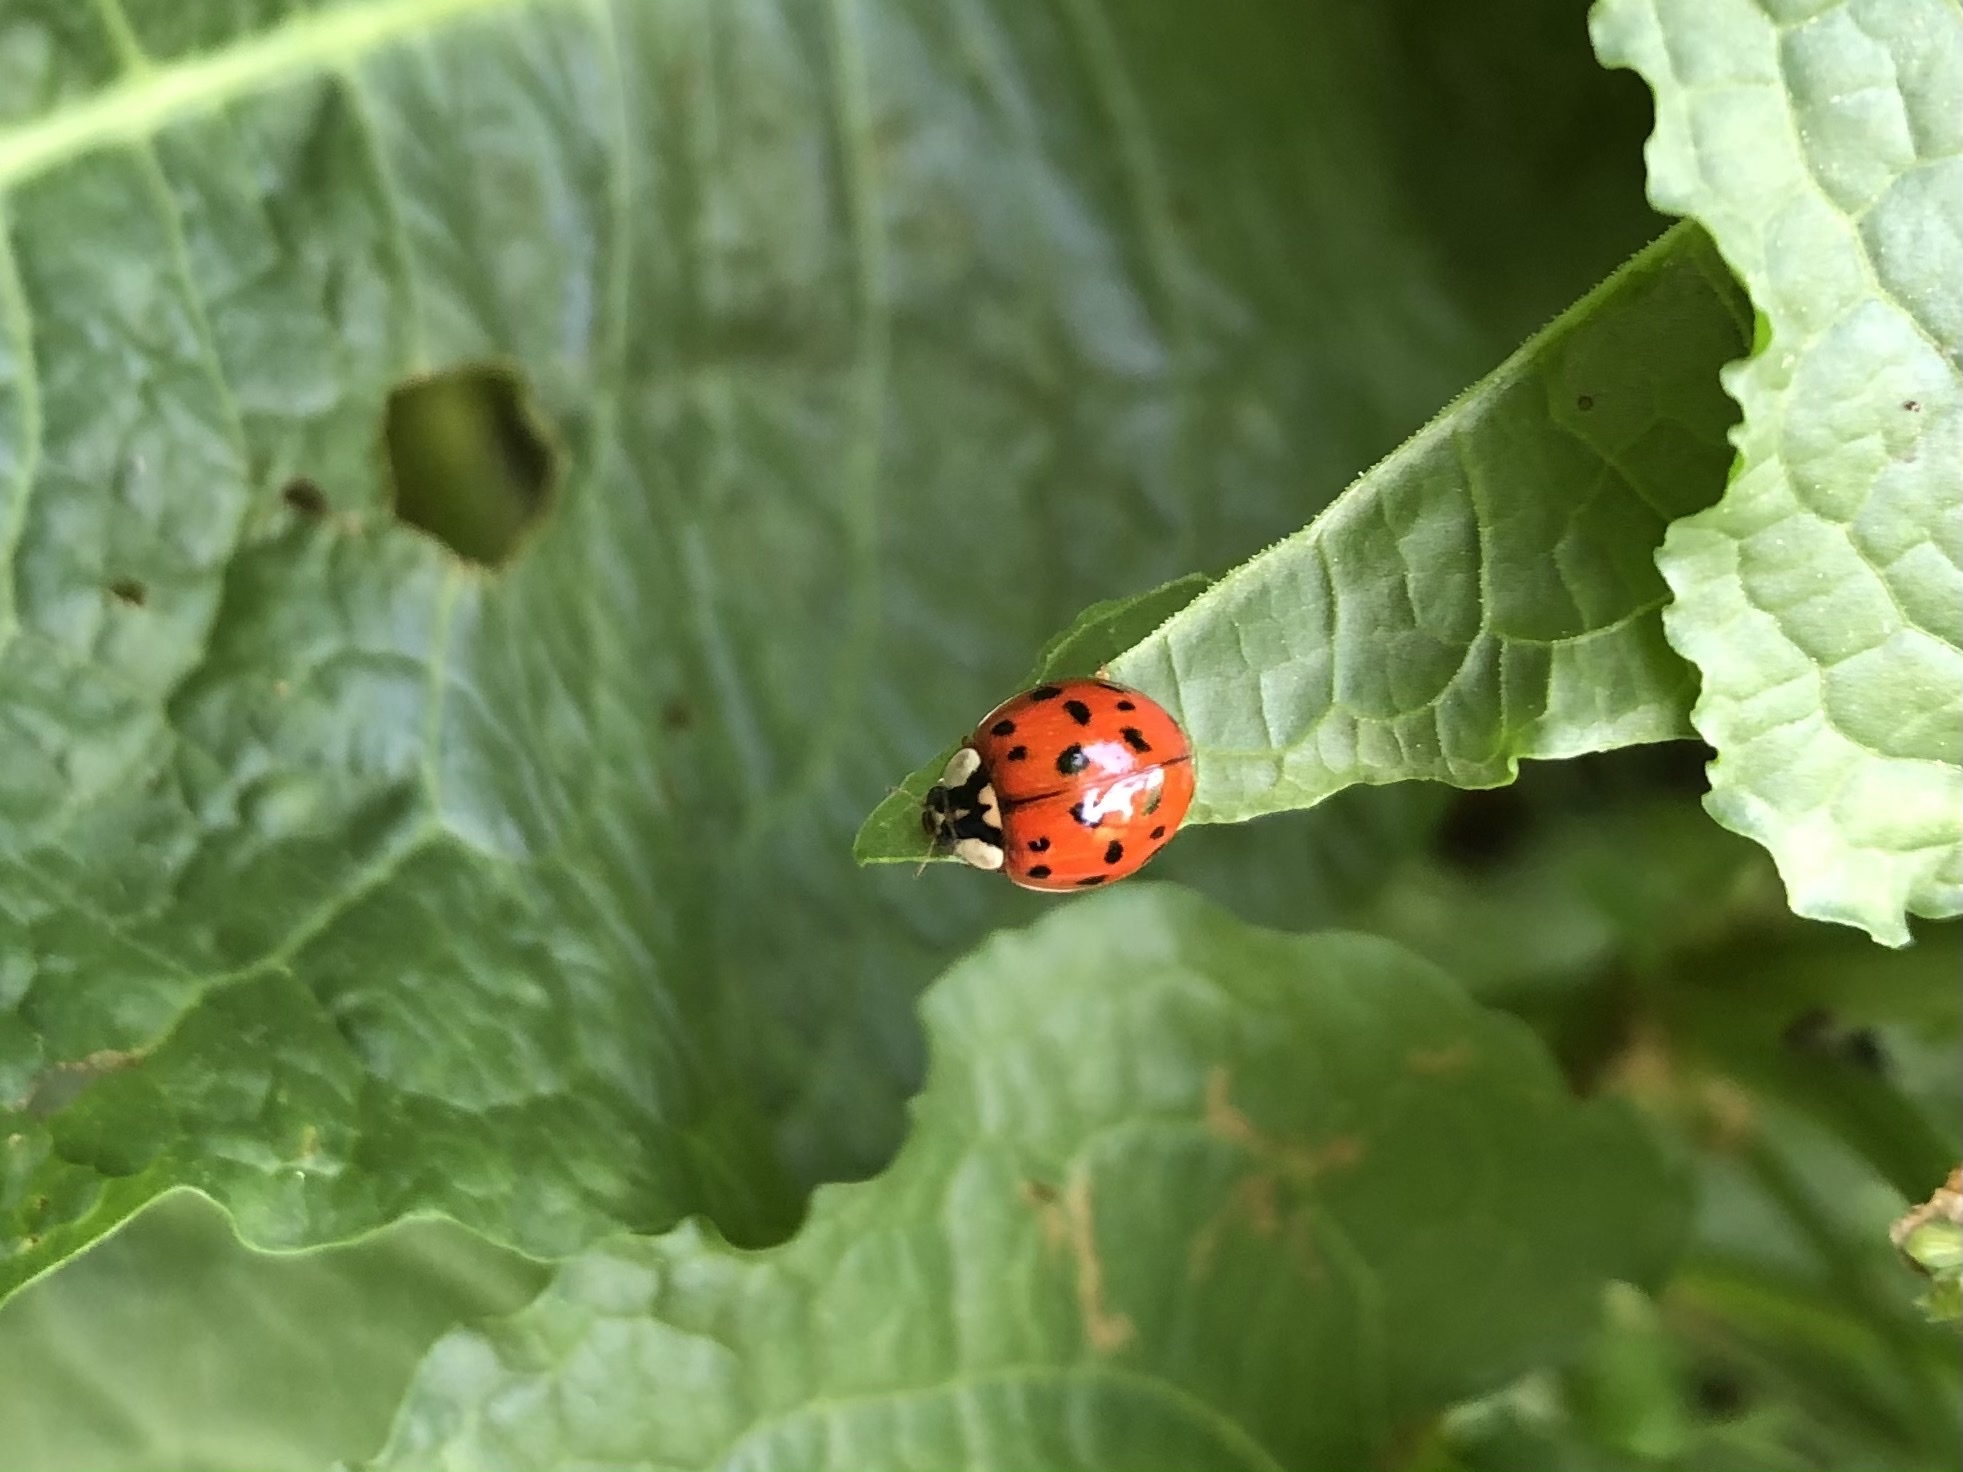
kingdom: Animalia
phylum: Arthropoda
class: Insecta
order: Coleoptera
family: Coccinellidae
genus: Harmonia
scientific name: Harmonia axyridis
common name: Harlequin ladybird
